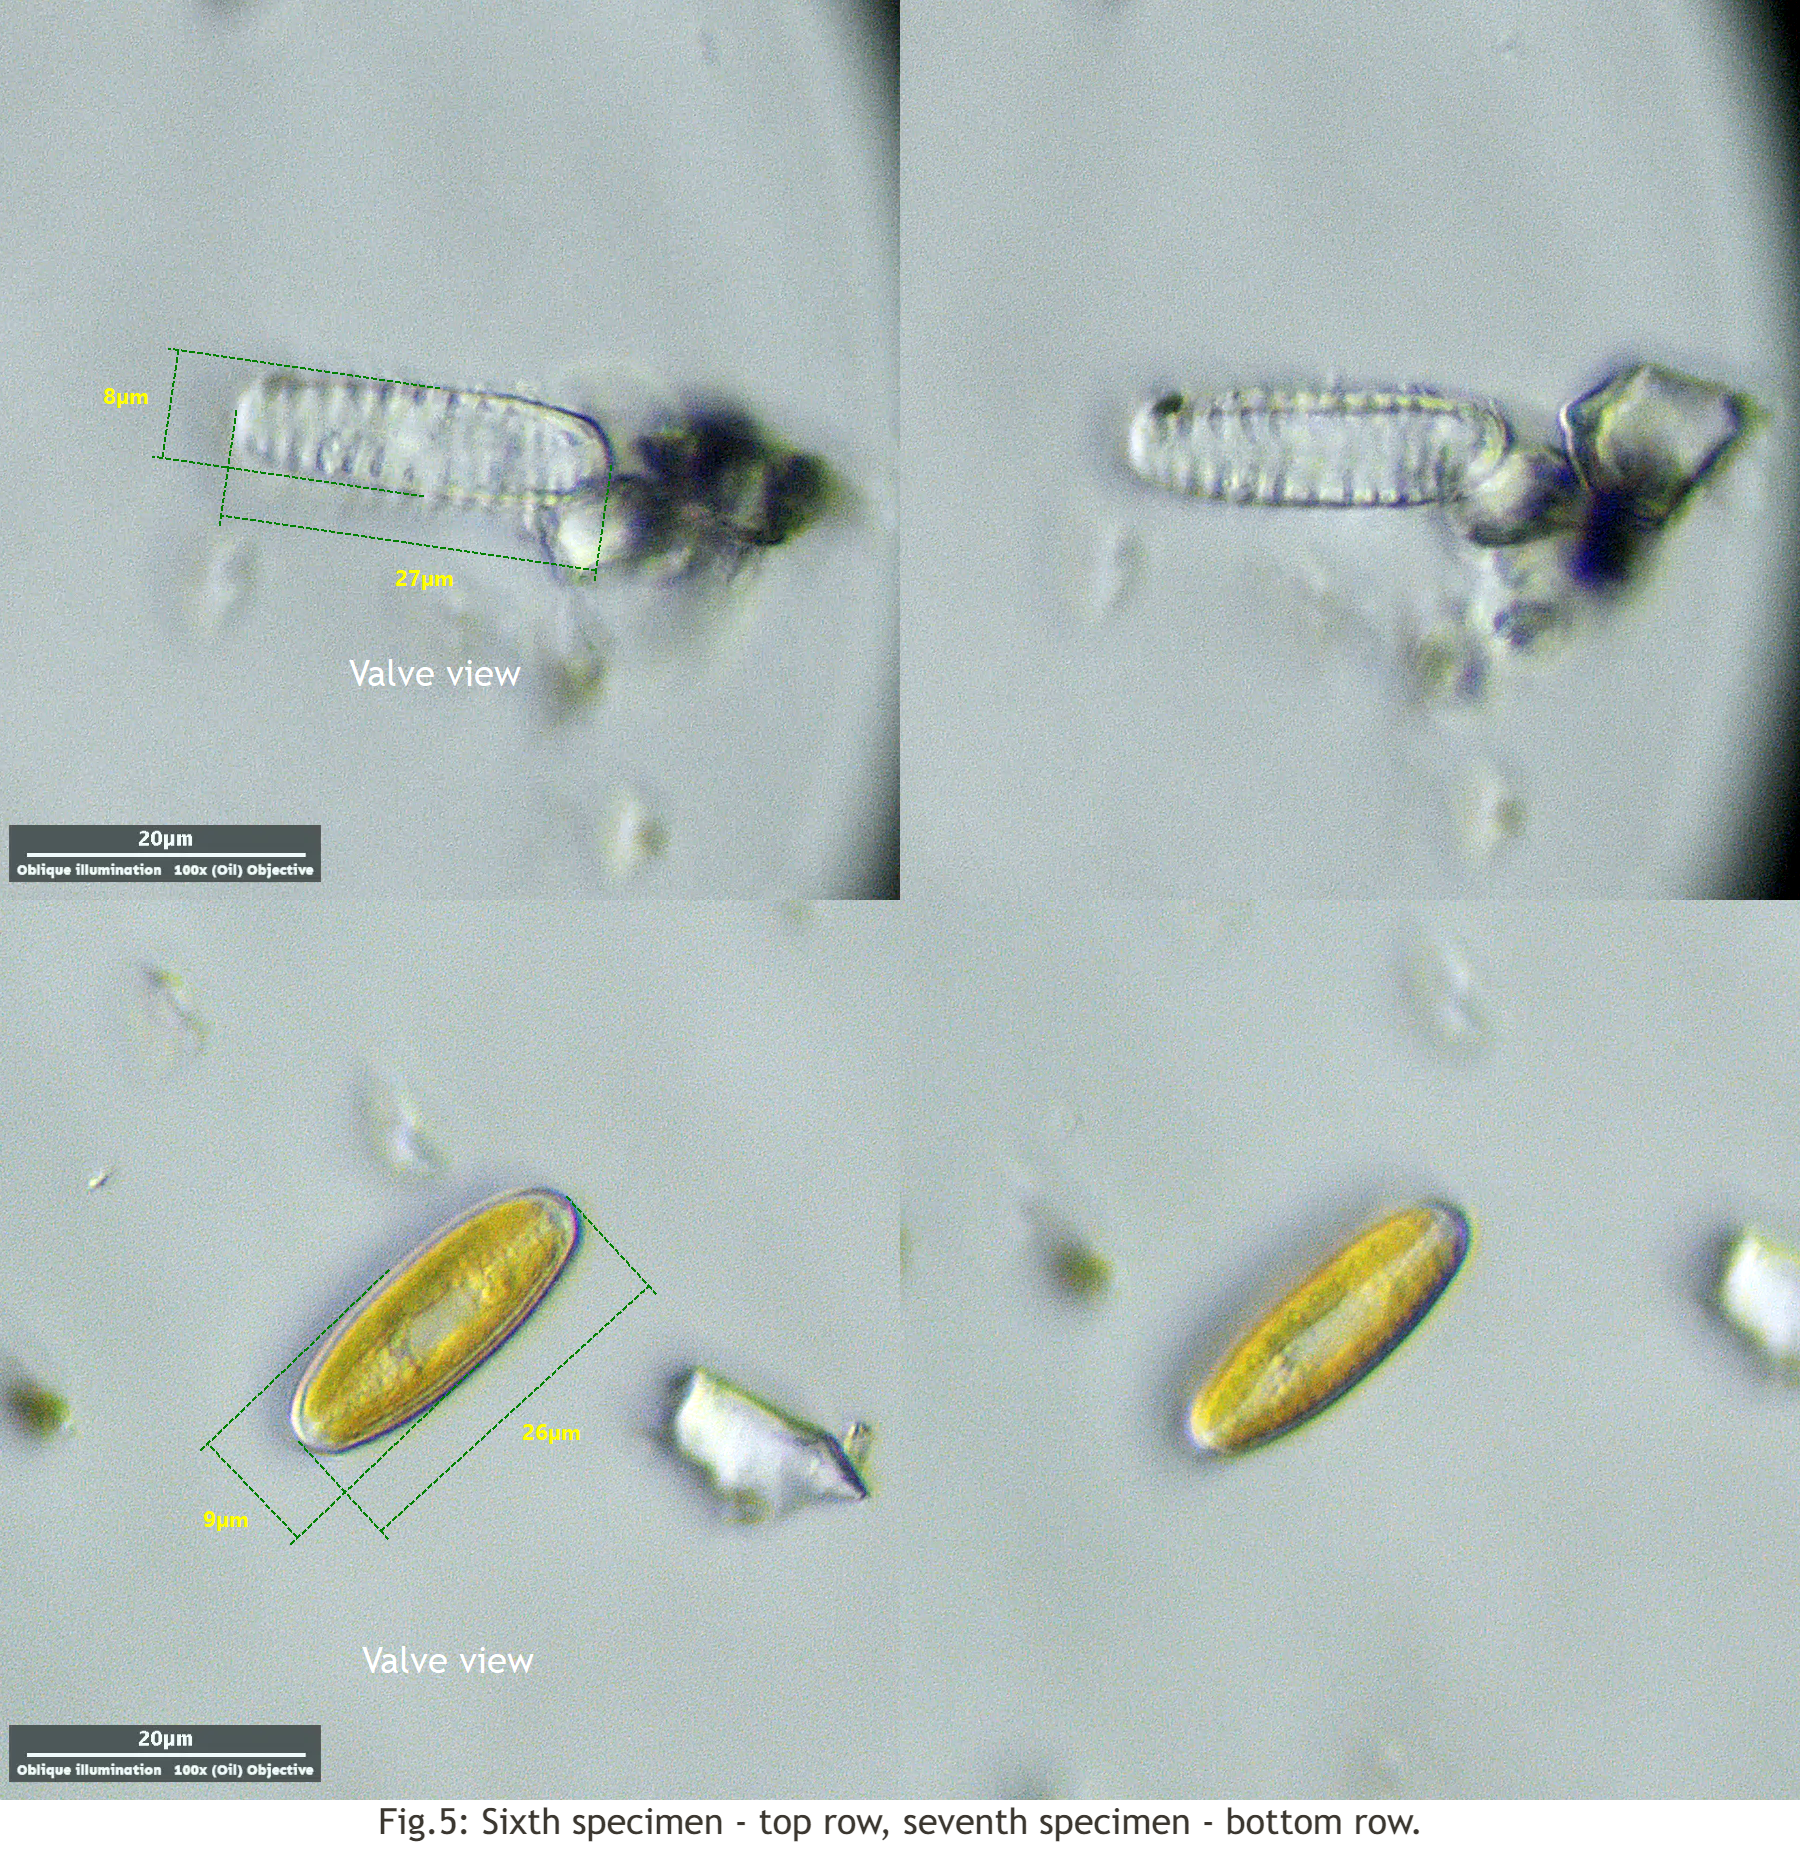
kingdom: Chromista
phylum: Ochrophyta
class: Bacillariophyceae
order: Naviculales
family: Pinnulariaceae
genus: Pinnularia
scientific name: Pinnularia borealis
